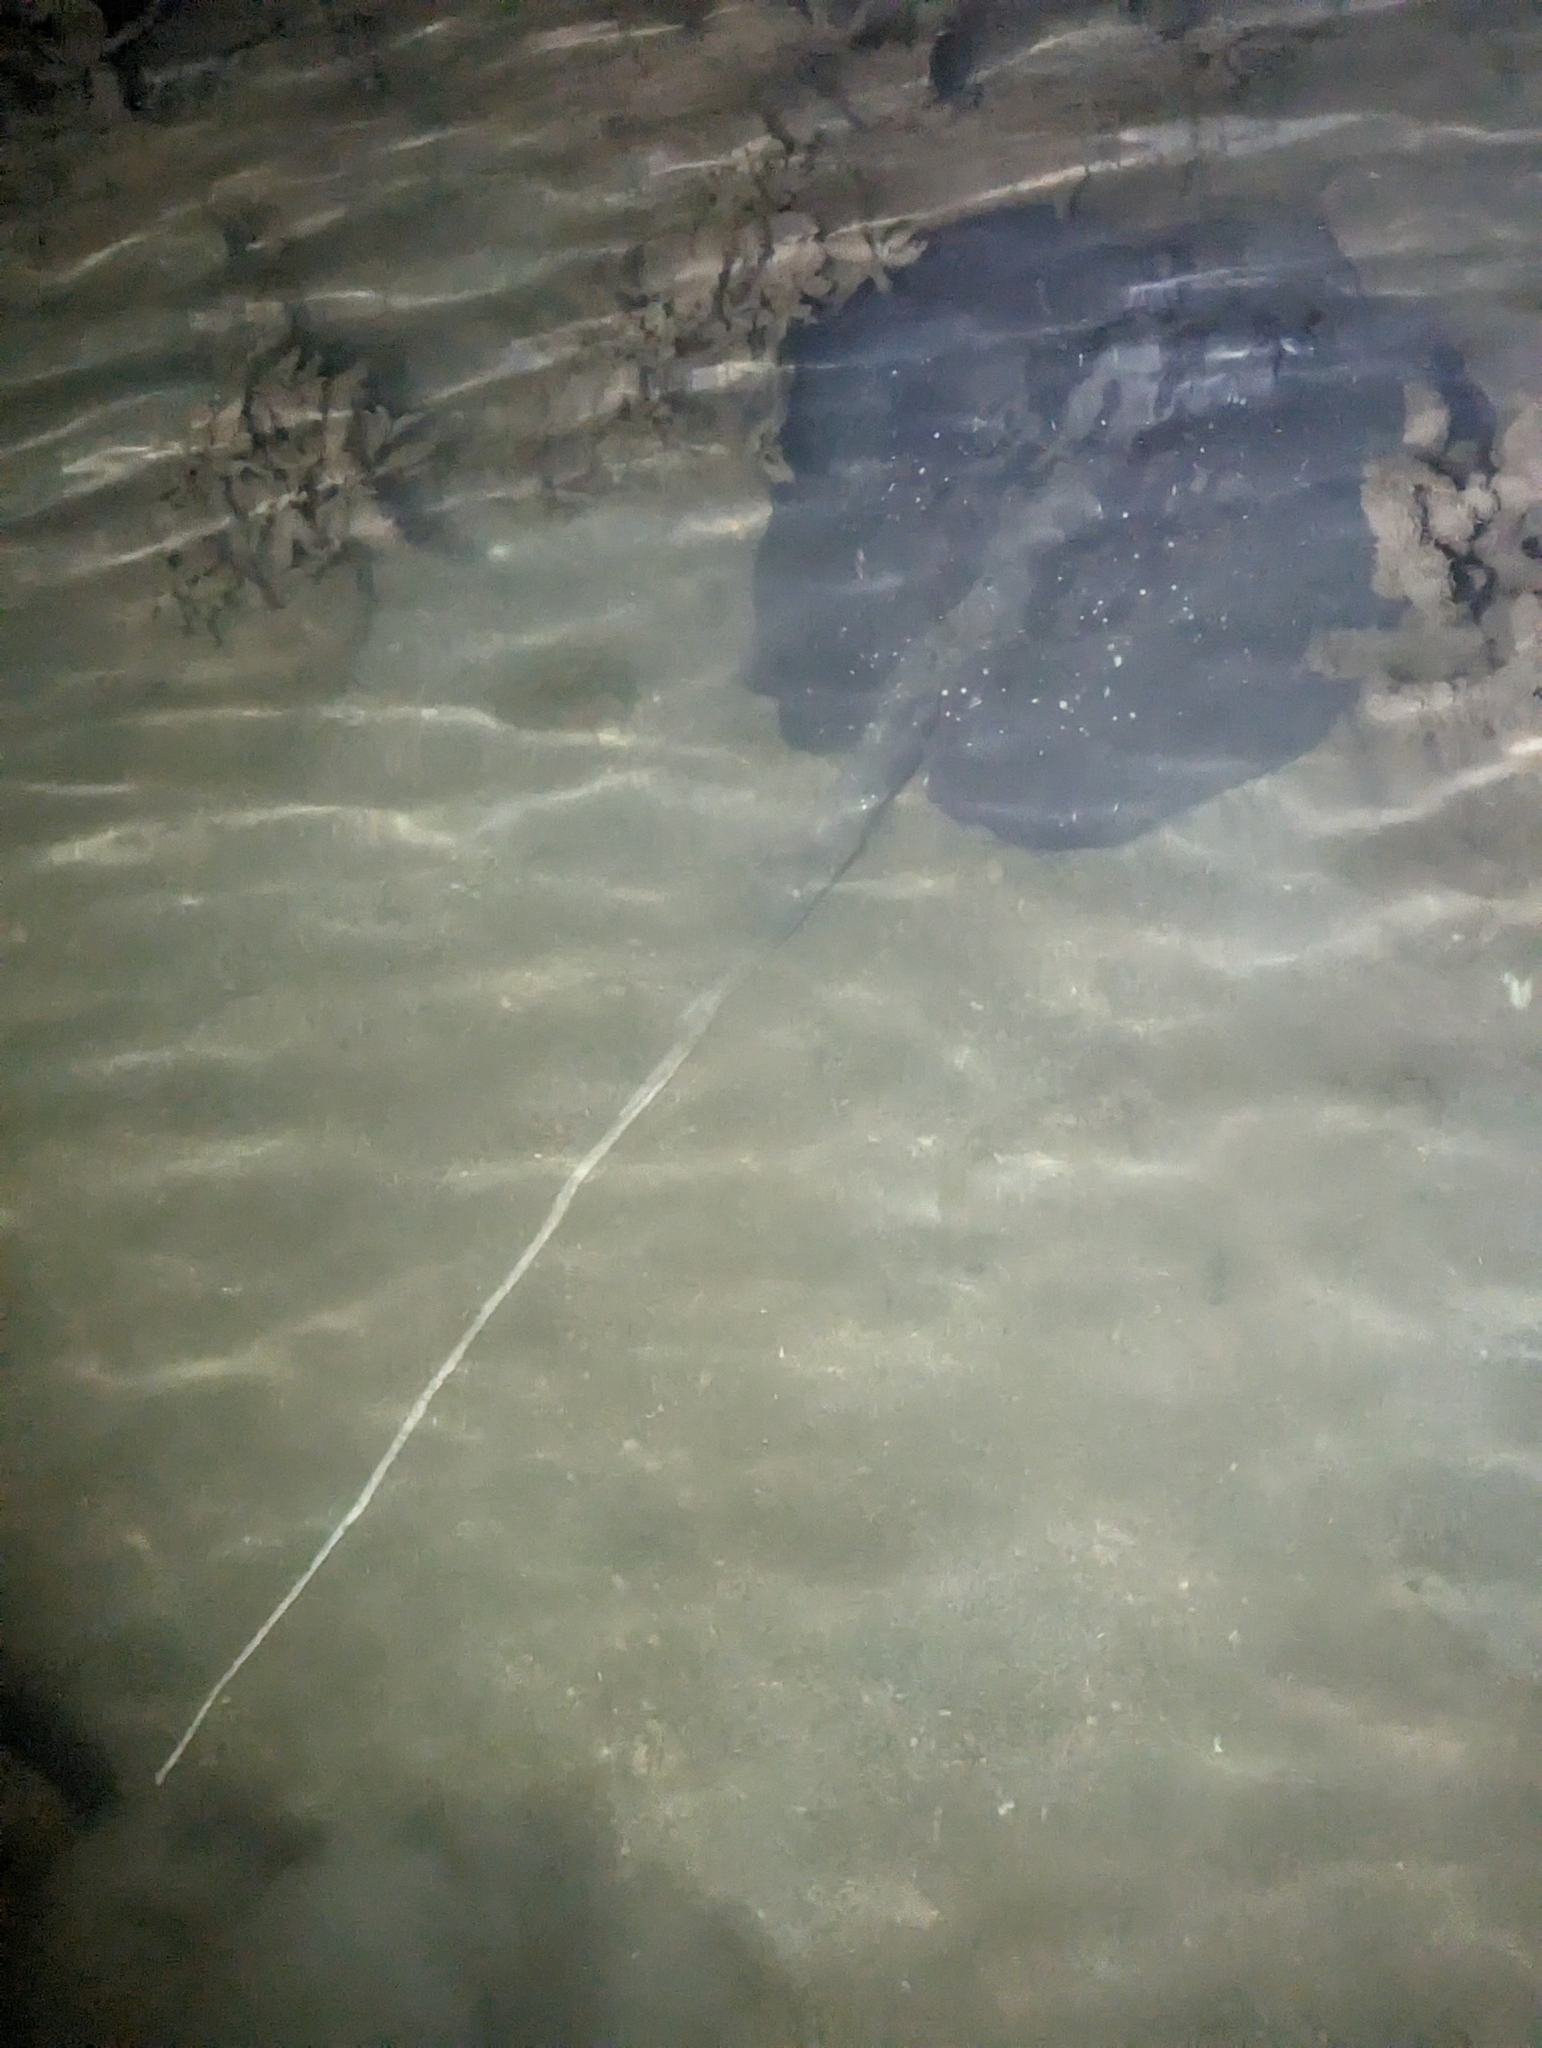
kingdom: Animalia
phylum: Chordata
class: Elasmobranchii
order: Myliobatiformes
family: Dasyatidae
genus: Urogymnus
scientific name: Urogymnus granulatus
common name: Mangrove whipray
